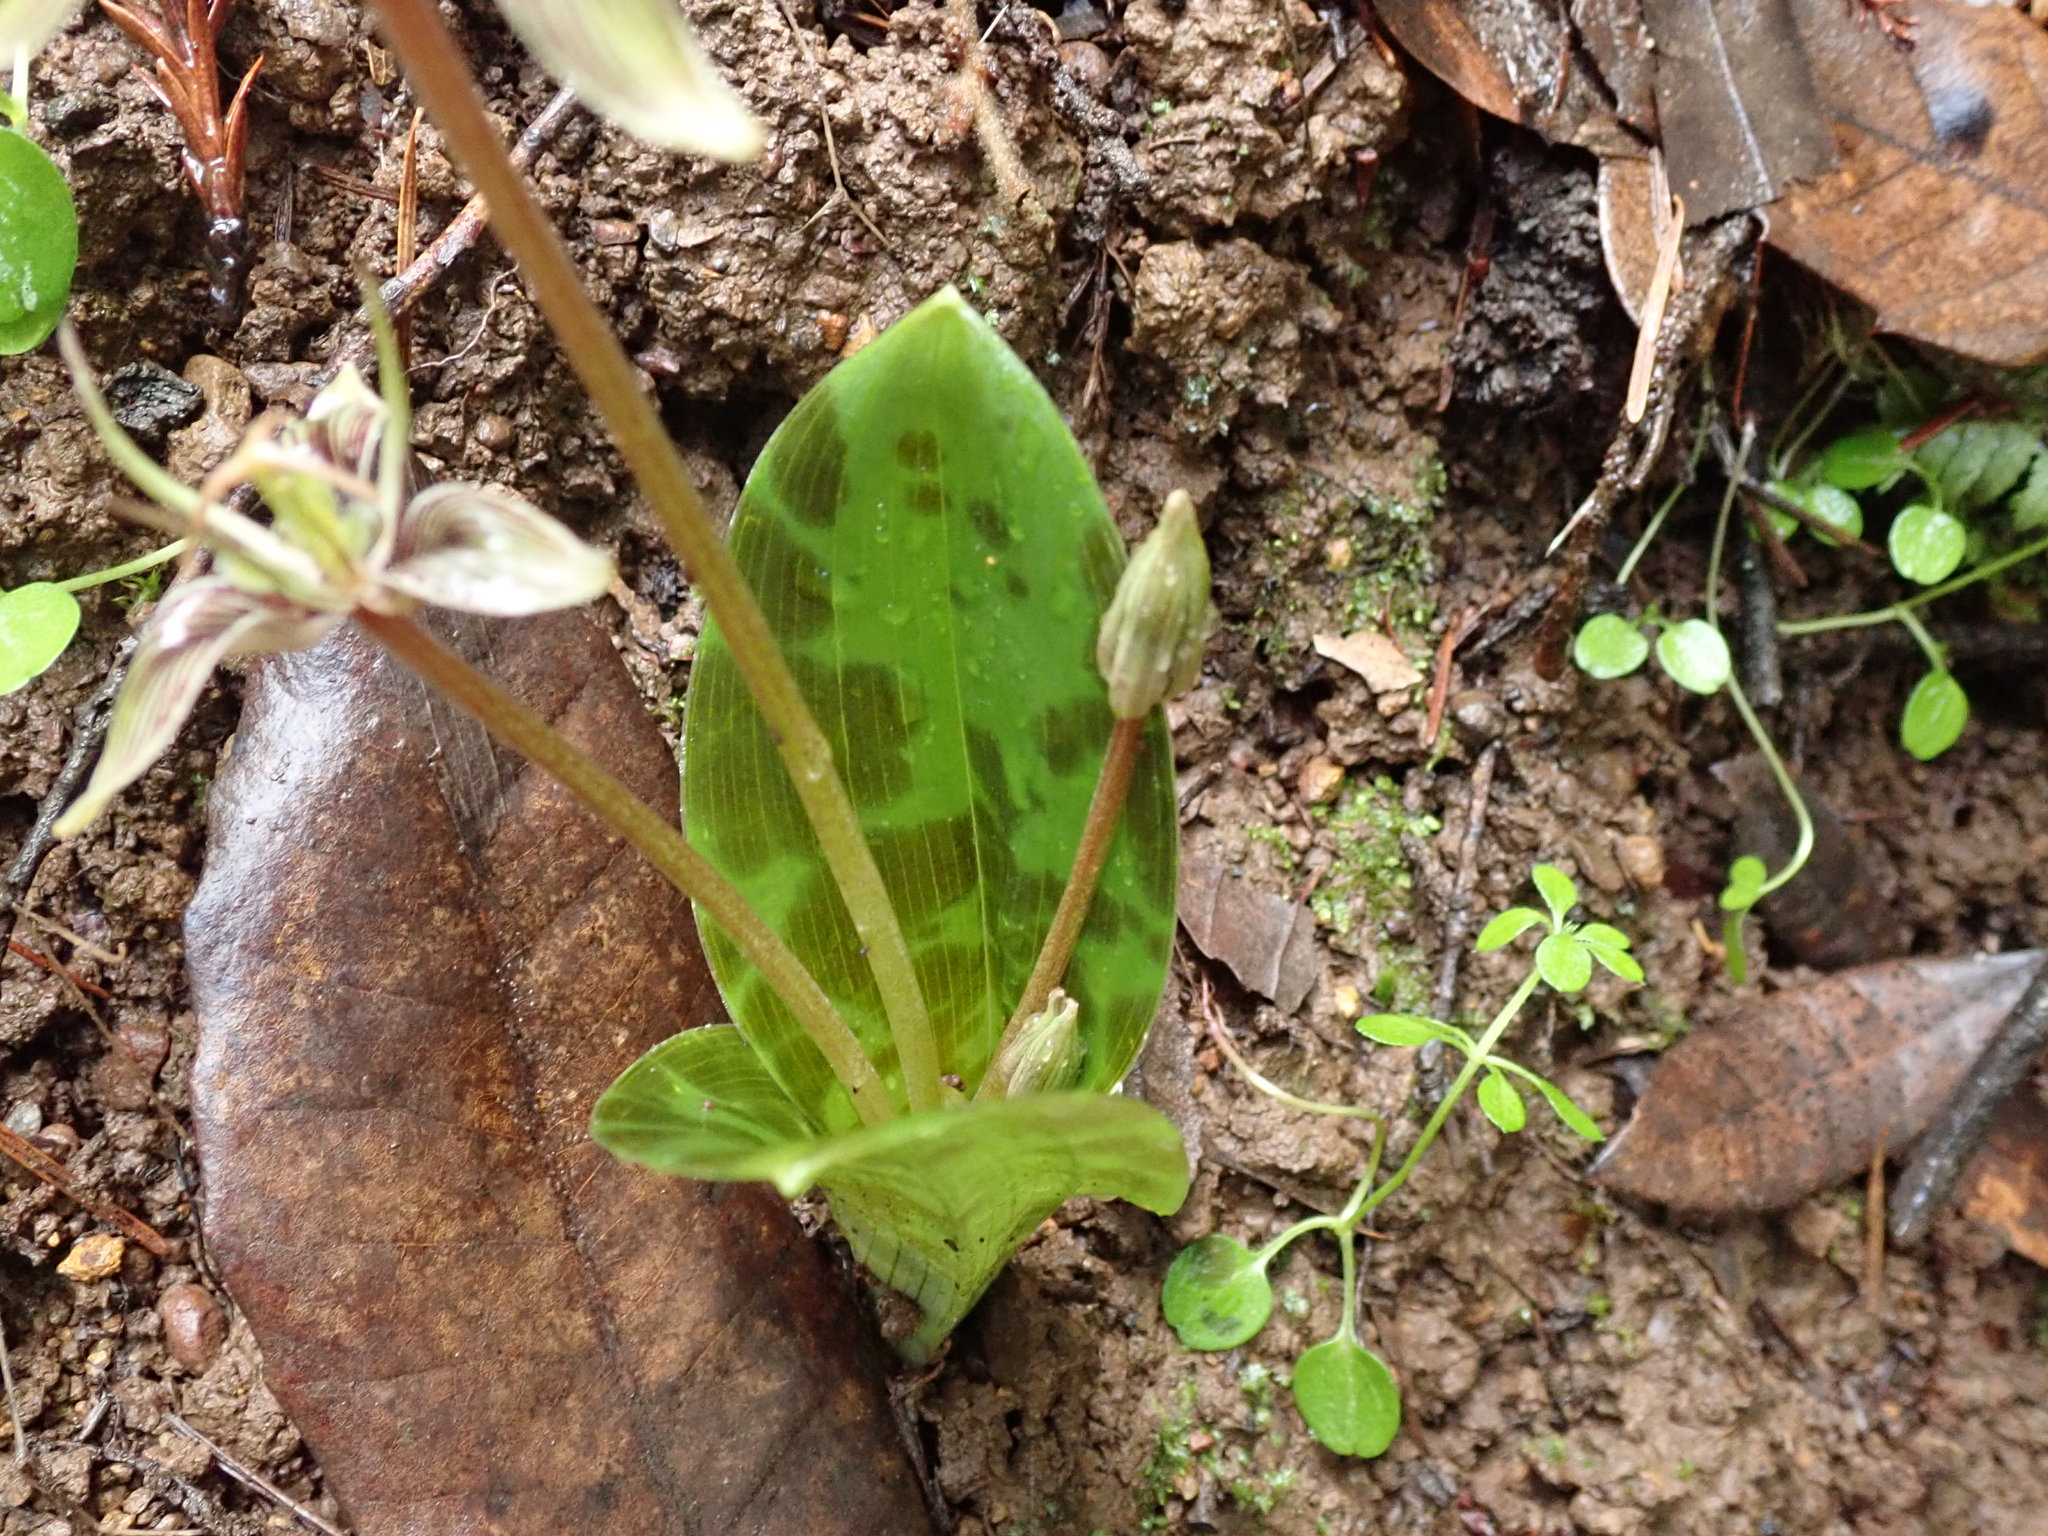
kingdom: Plantae
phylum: Tracheophyta
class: Liliopsida
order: Liliales
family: Liliaceae
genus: Scoliopus
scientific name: Scoliopus bigelovii
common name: Foetid adder's-tongue
